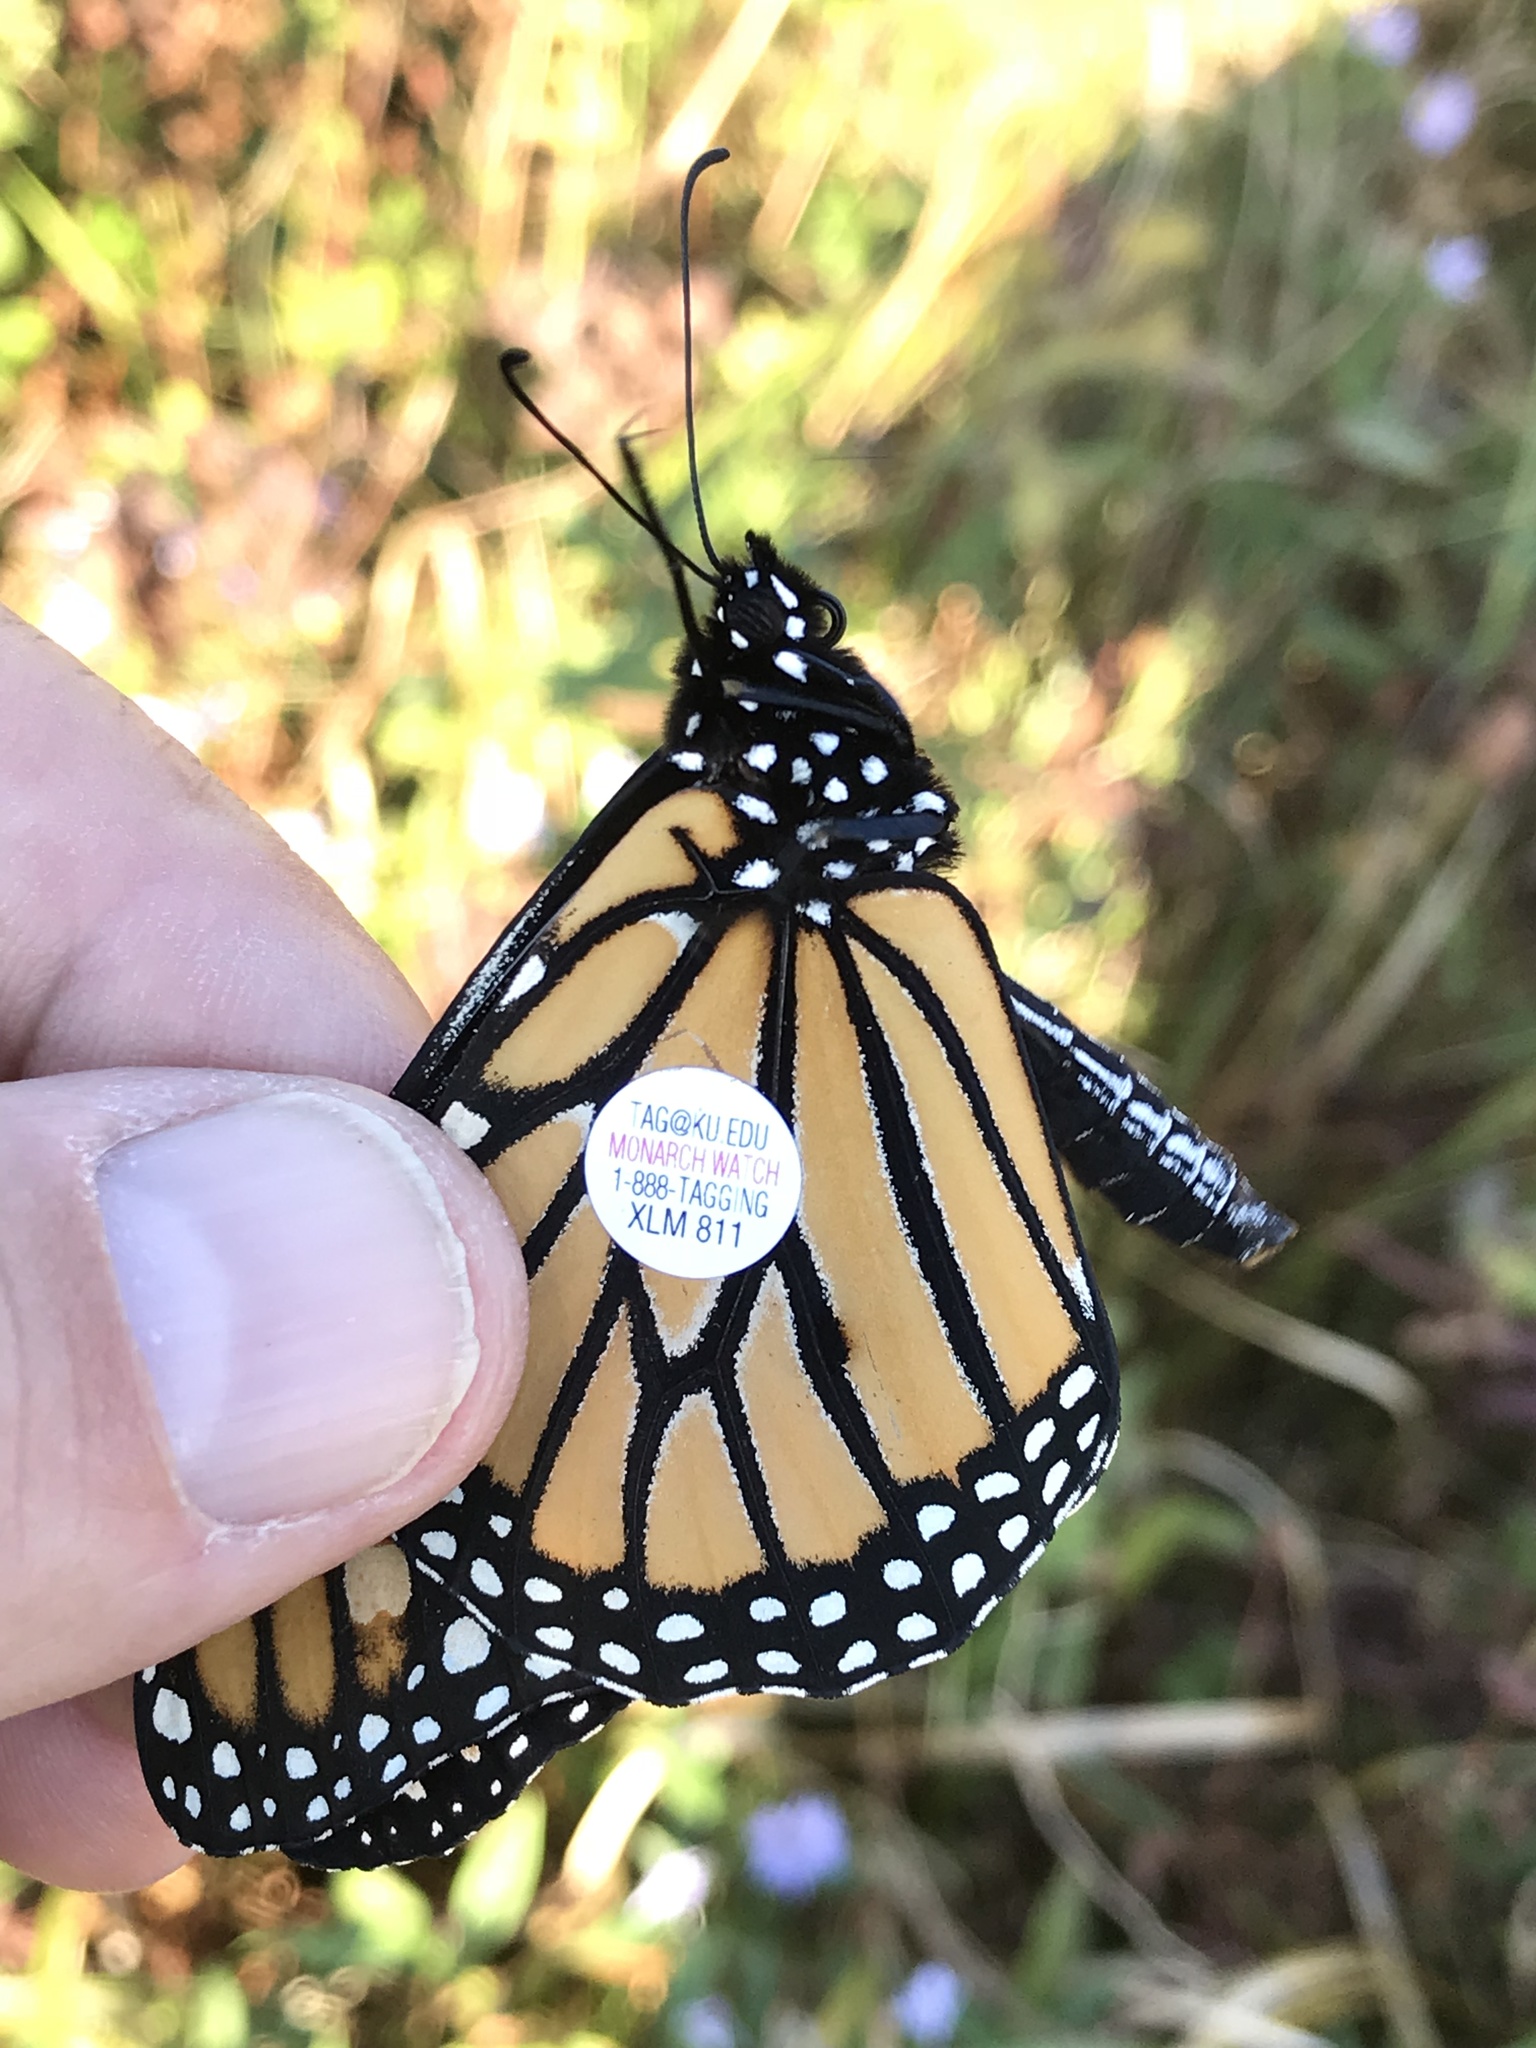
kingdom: Animalia
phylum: Arthropoda
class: Insecta
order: Lepidoptera
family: Nymphalidae
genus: Danaus
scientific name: Danaus plexippus
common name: Monarch
